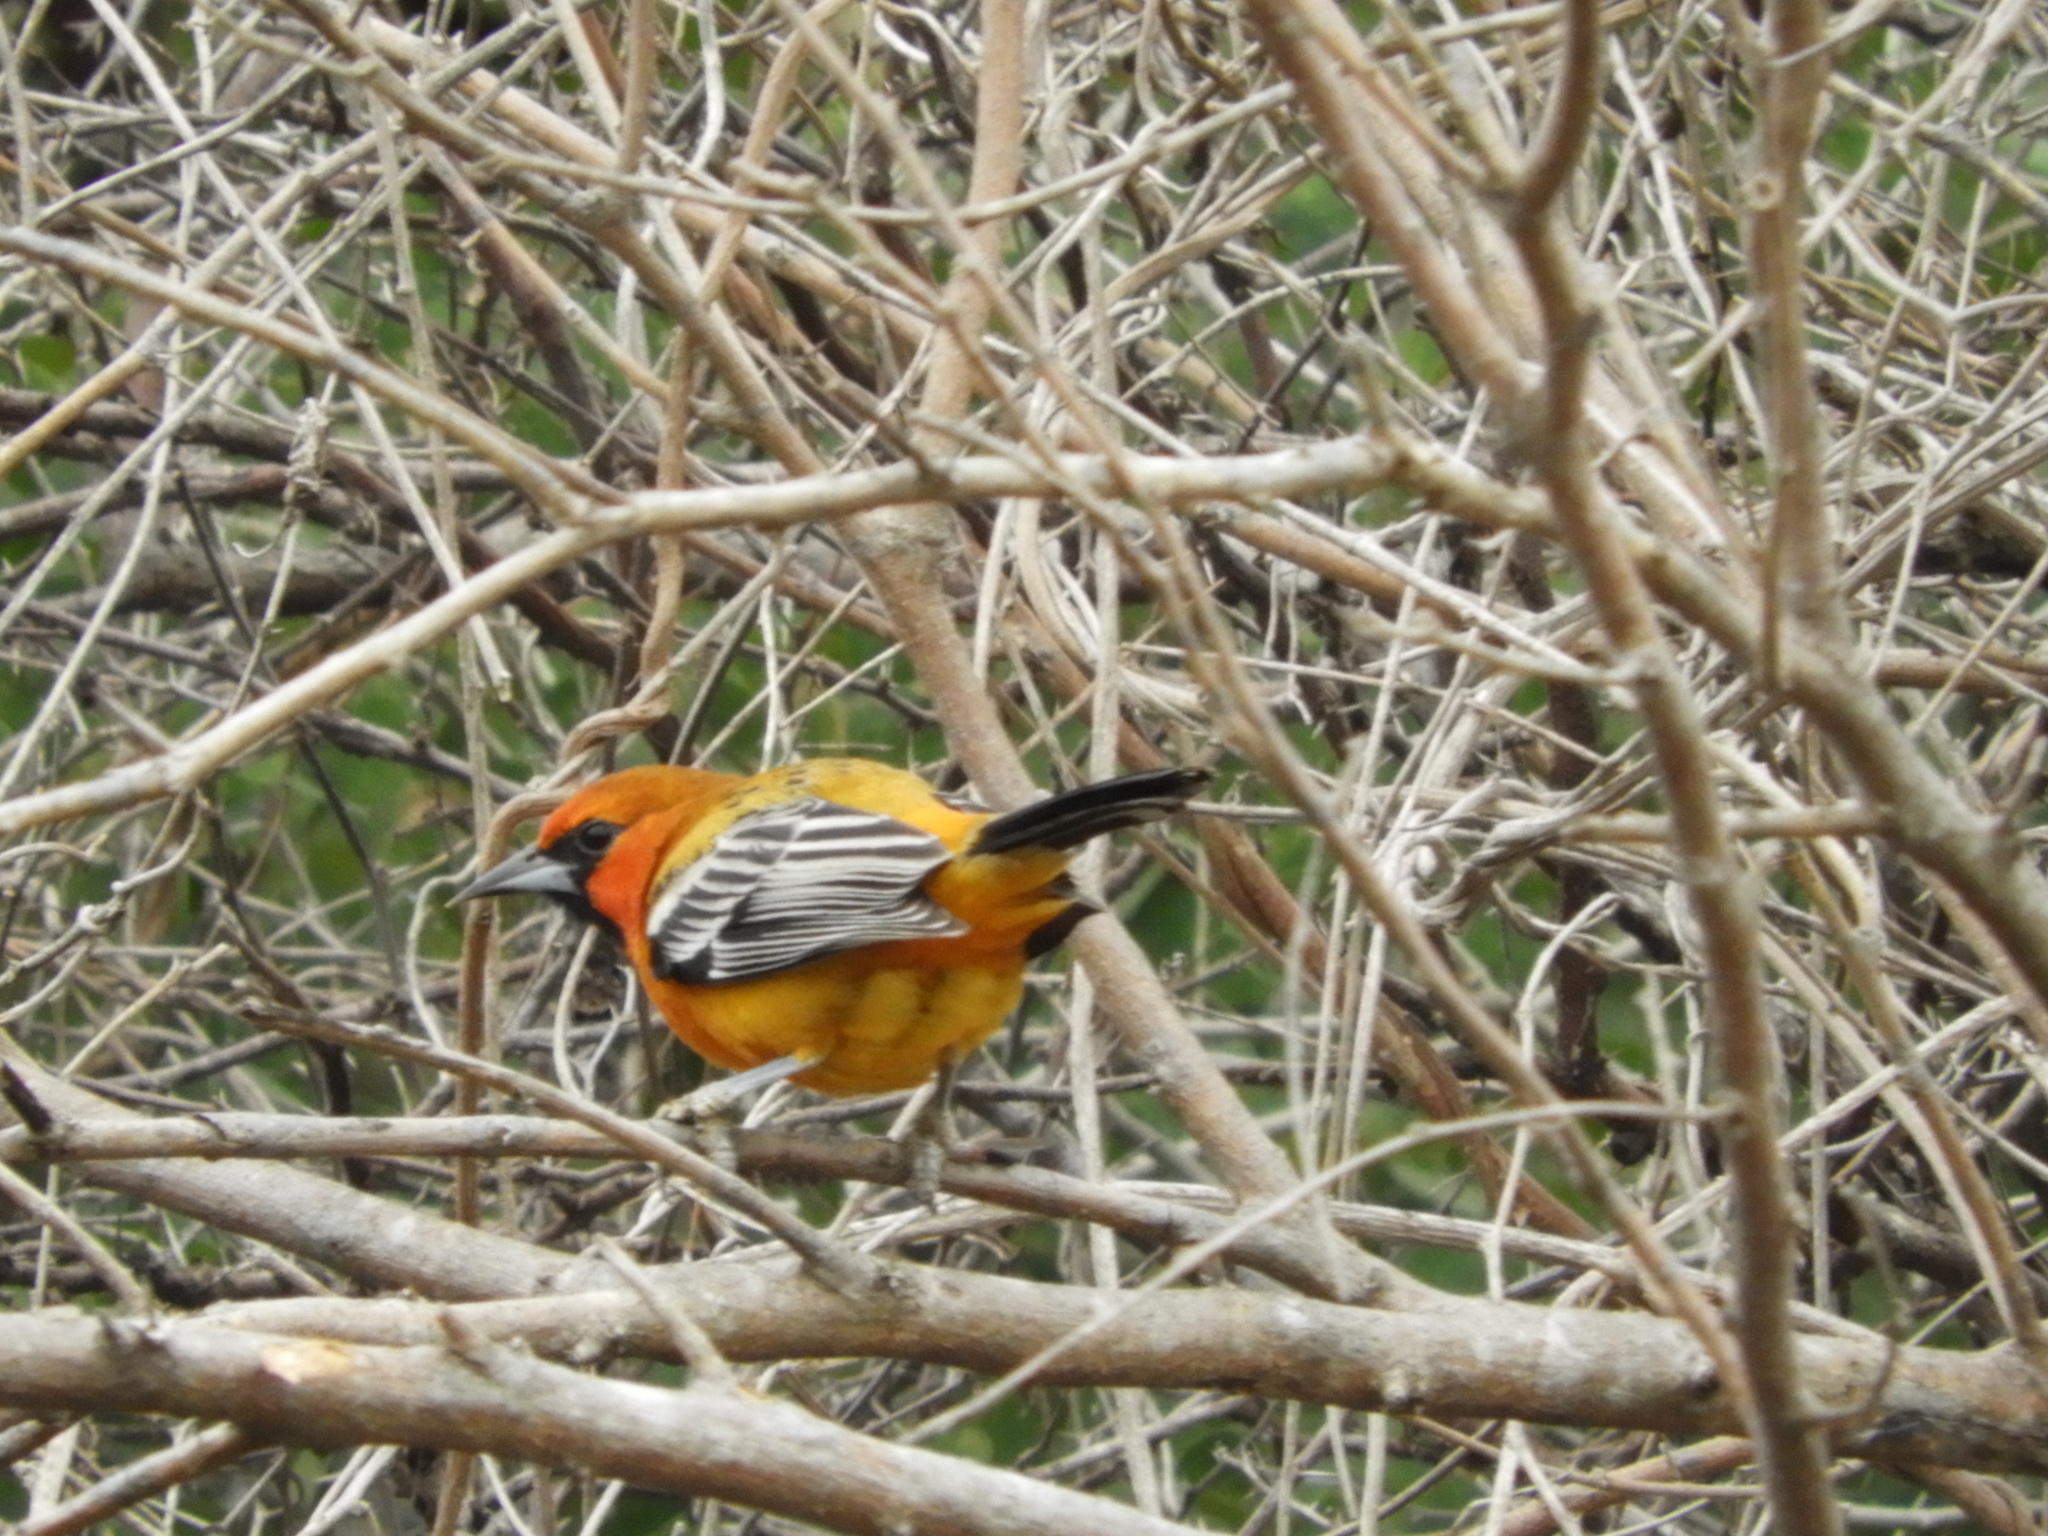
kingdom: Animalia
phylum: Chordata
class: Aves
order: Passeriformes
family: Icteridae
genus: Icterus
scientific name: Icterus pustulatus
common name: Streak-backed oriole
